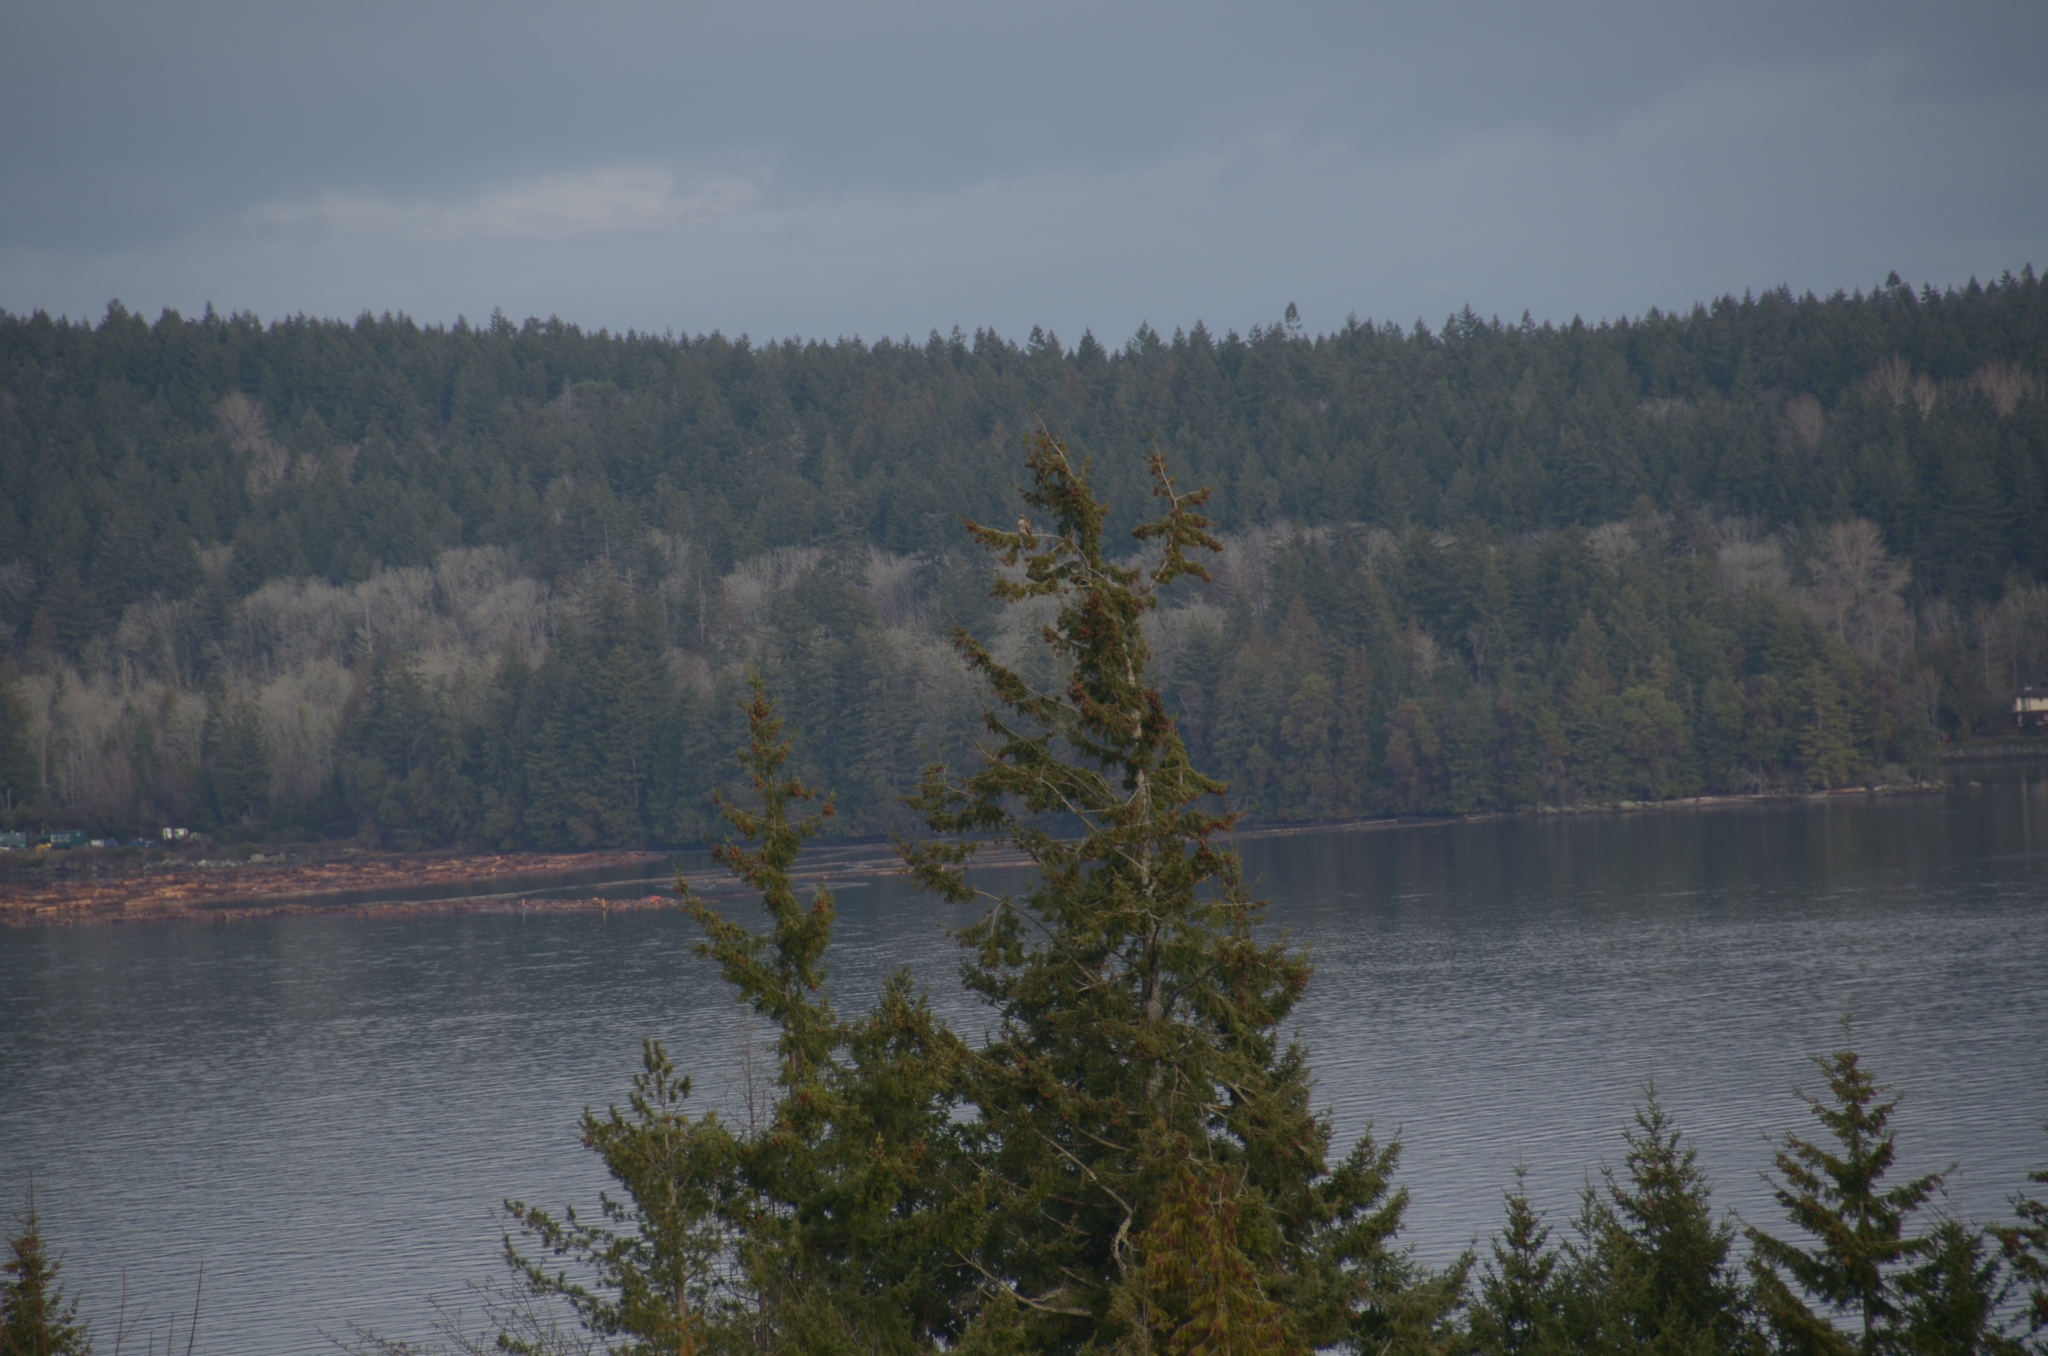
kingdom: Animalia
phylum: Chordata
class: Aves
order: Accipitriformes
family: Accipitridae
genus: Buteo
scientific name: Buteo jamaicensis
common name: Red-tailed hawk
